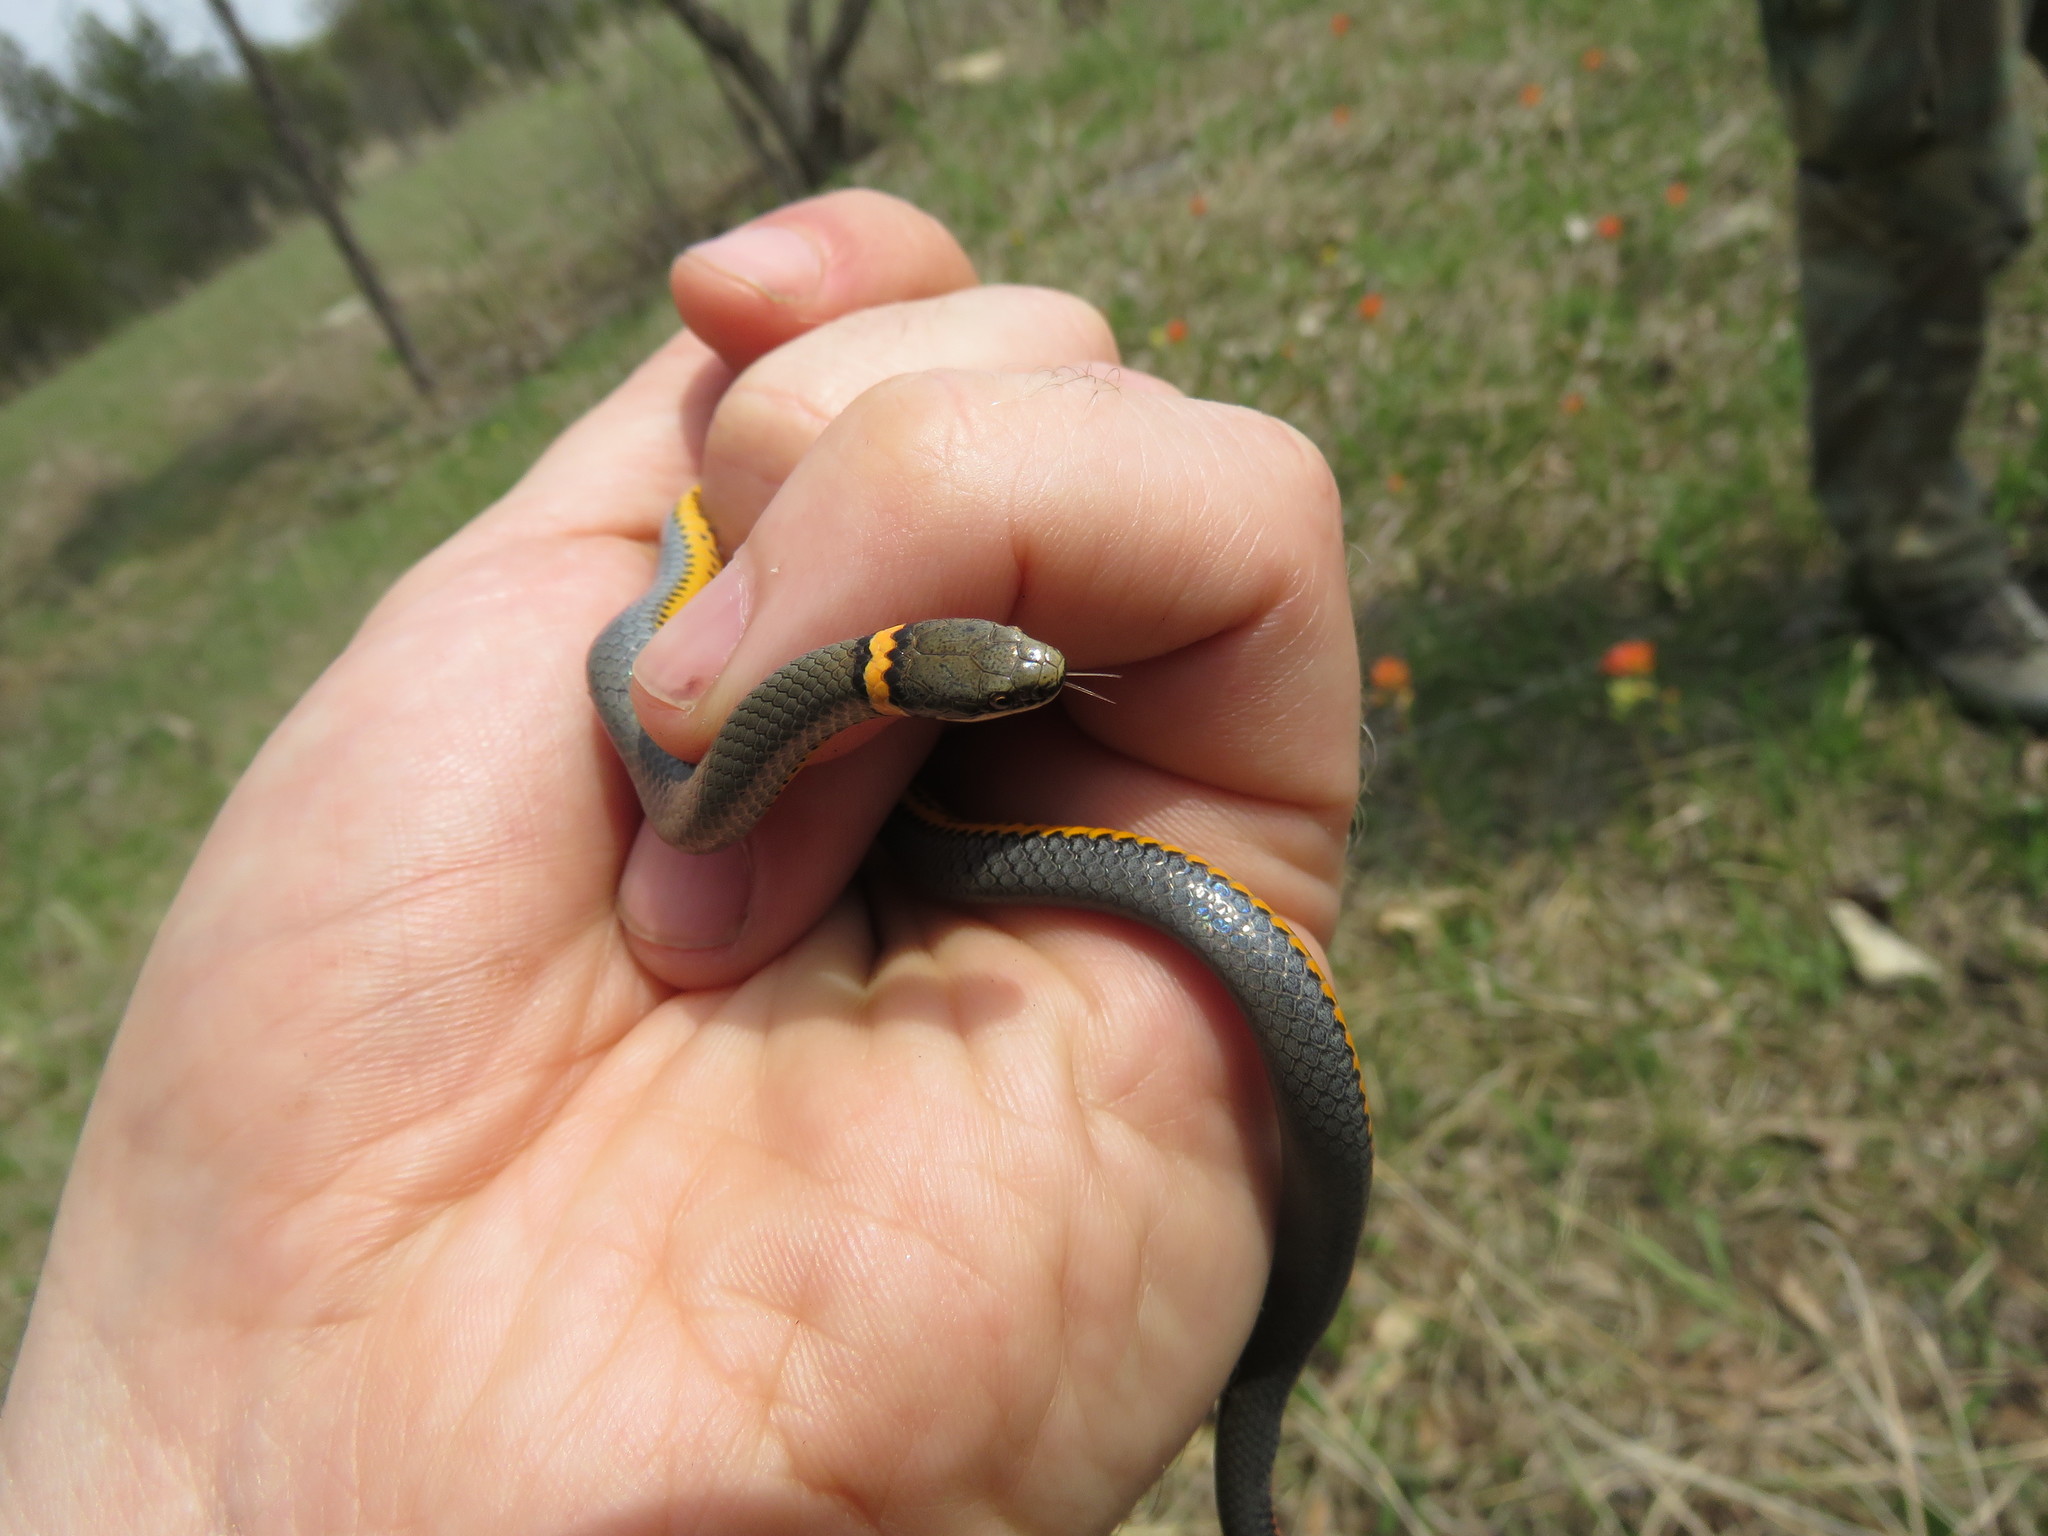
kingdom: Animalia
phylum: Chordata
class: Squamata
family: Colubridae
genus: Diadophis
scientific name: Diadophis punctatus
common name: Ringneck snake
